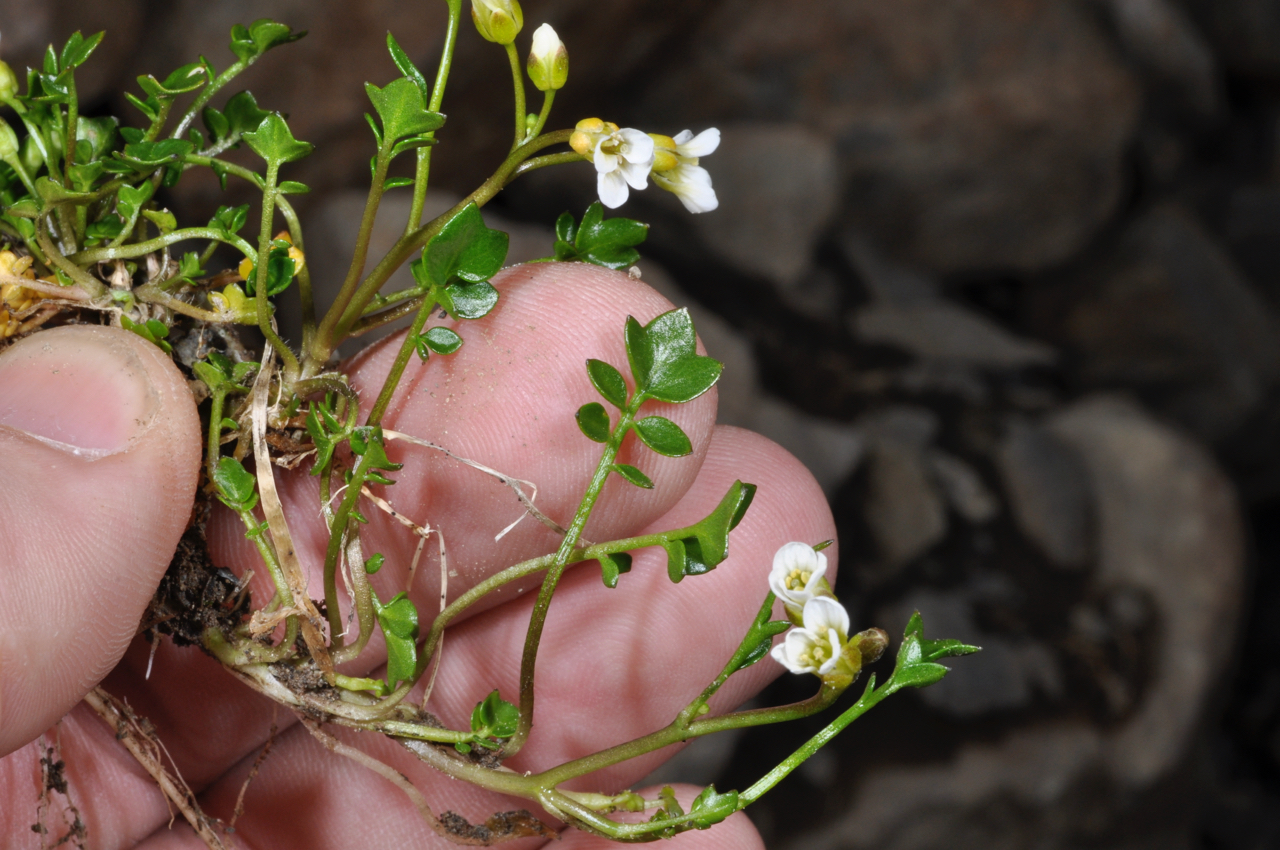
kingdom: Plantae
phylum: Tracheophyta
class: Magnoliopsida
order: Brassicales
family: Brassicaceae
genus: Cardamine
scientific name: Cardamine alalata
